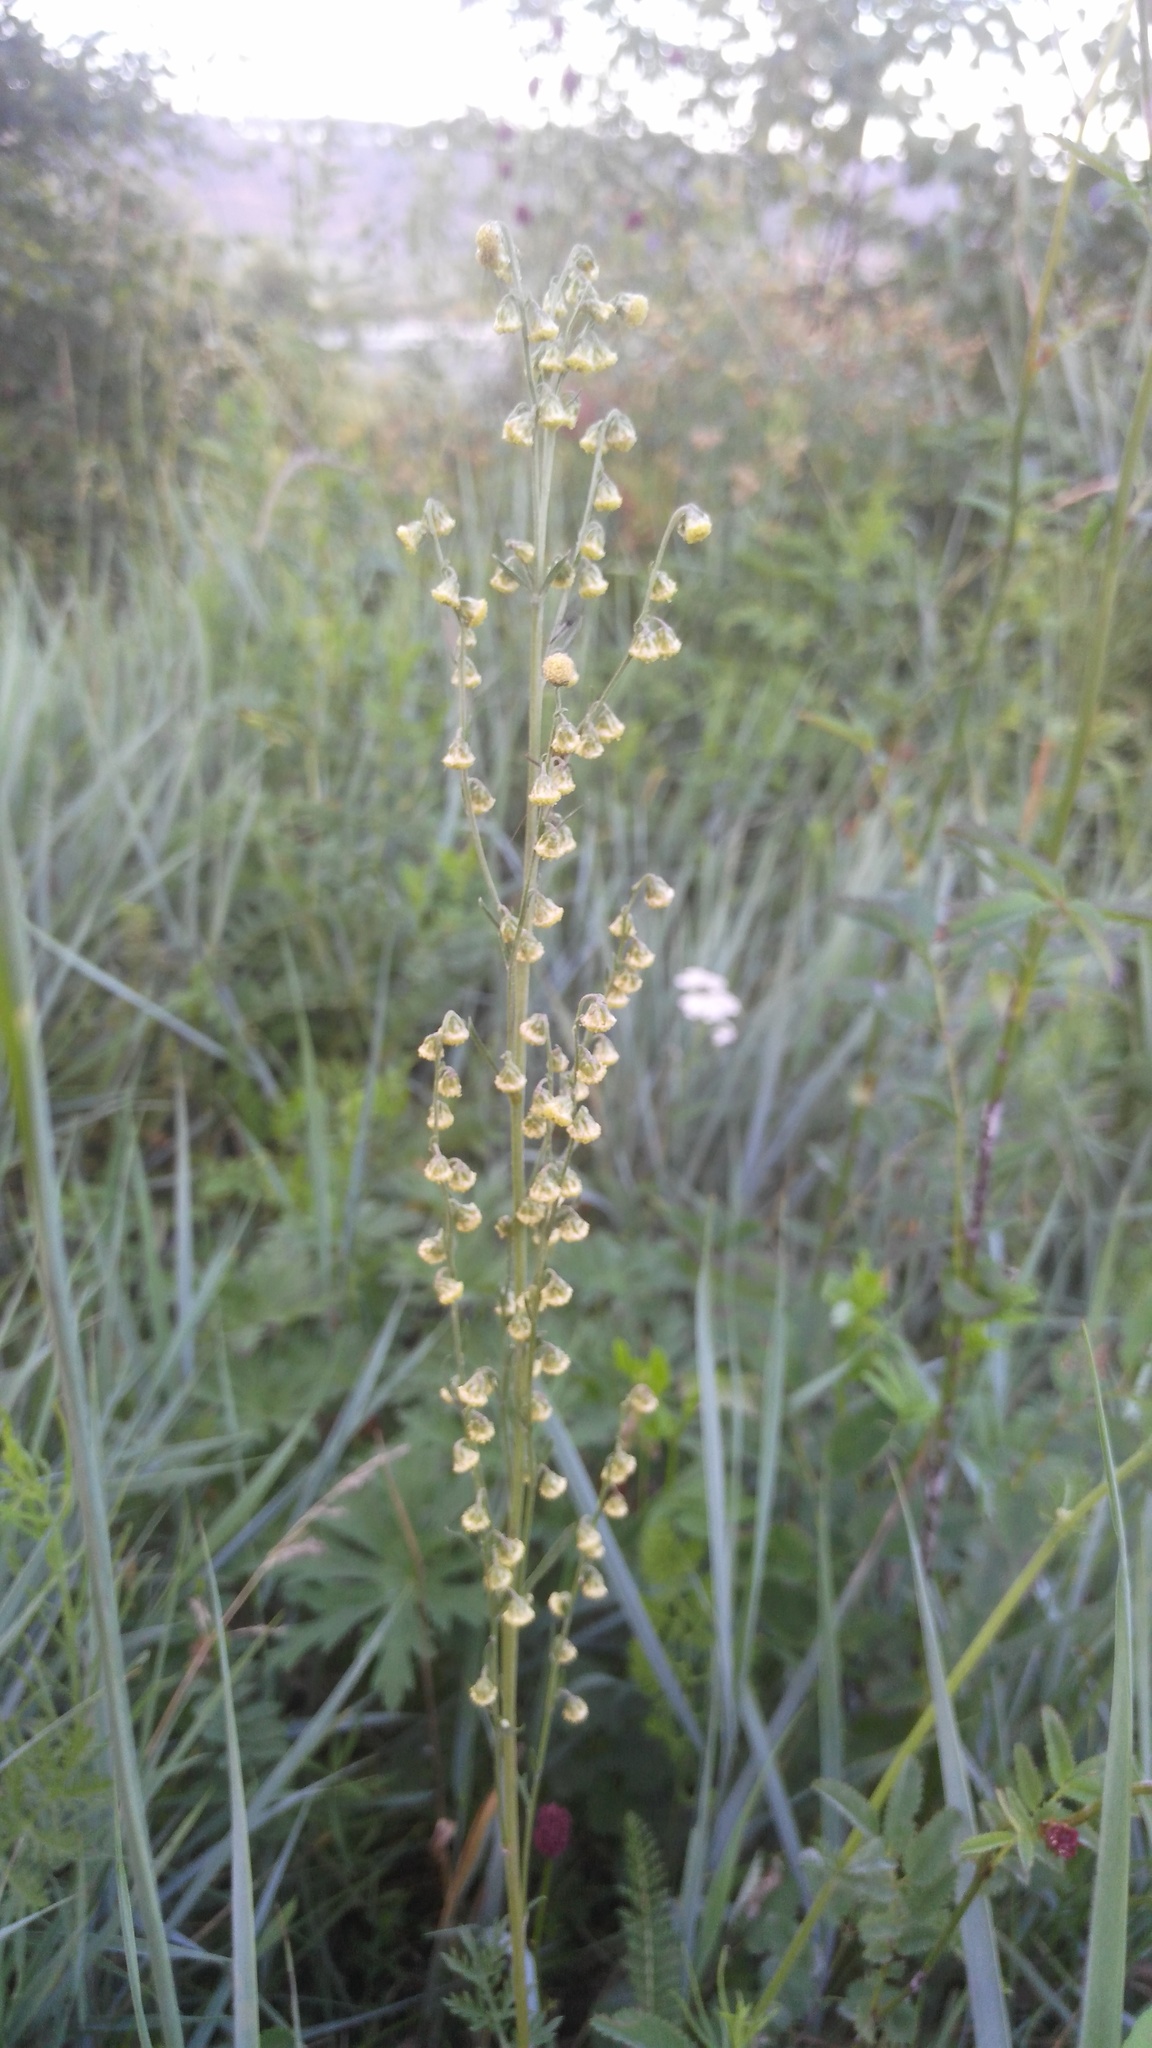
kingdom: Plantae
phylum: Tracheophyta
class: Magnoliopsida
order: Asterales
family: Asteraceae
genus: Artemisia
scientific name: Artemisia tanacetifolia
